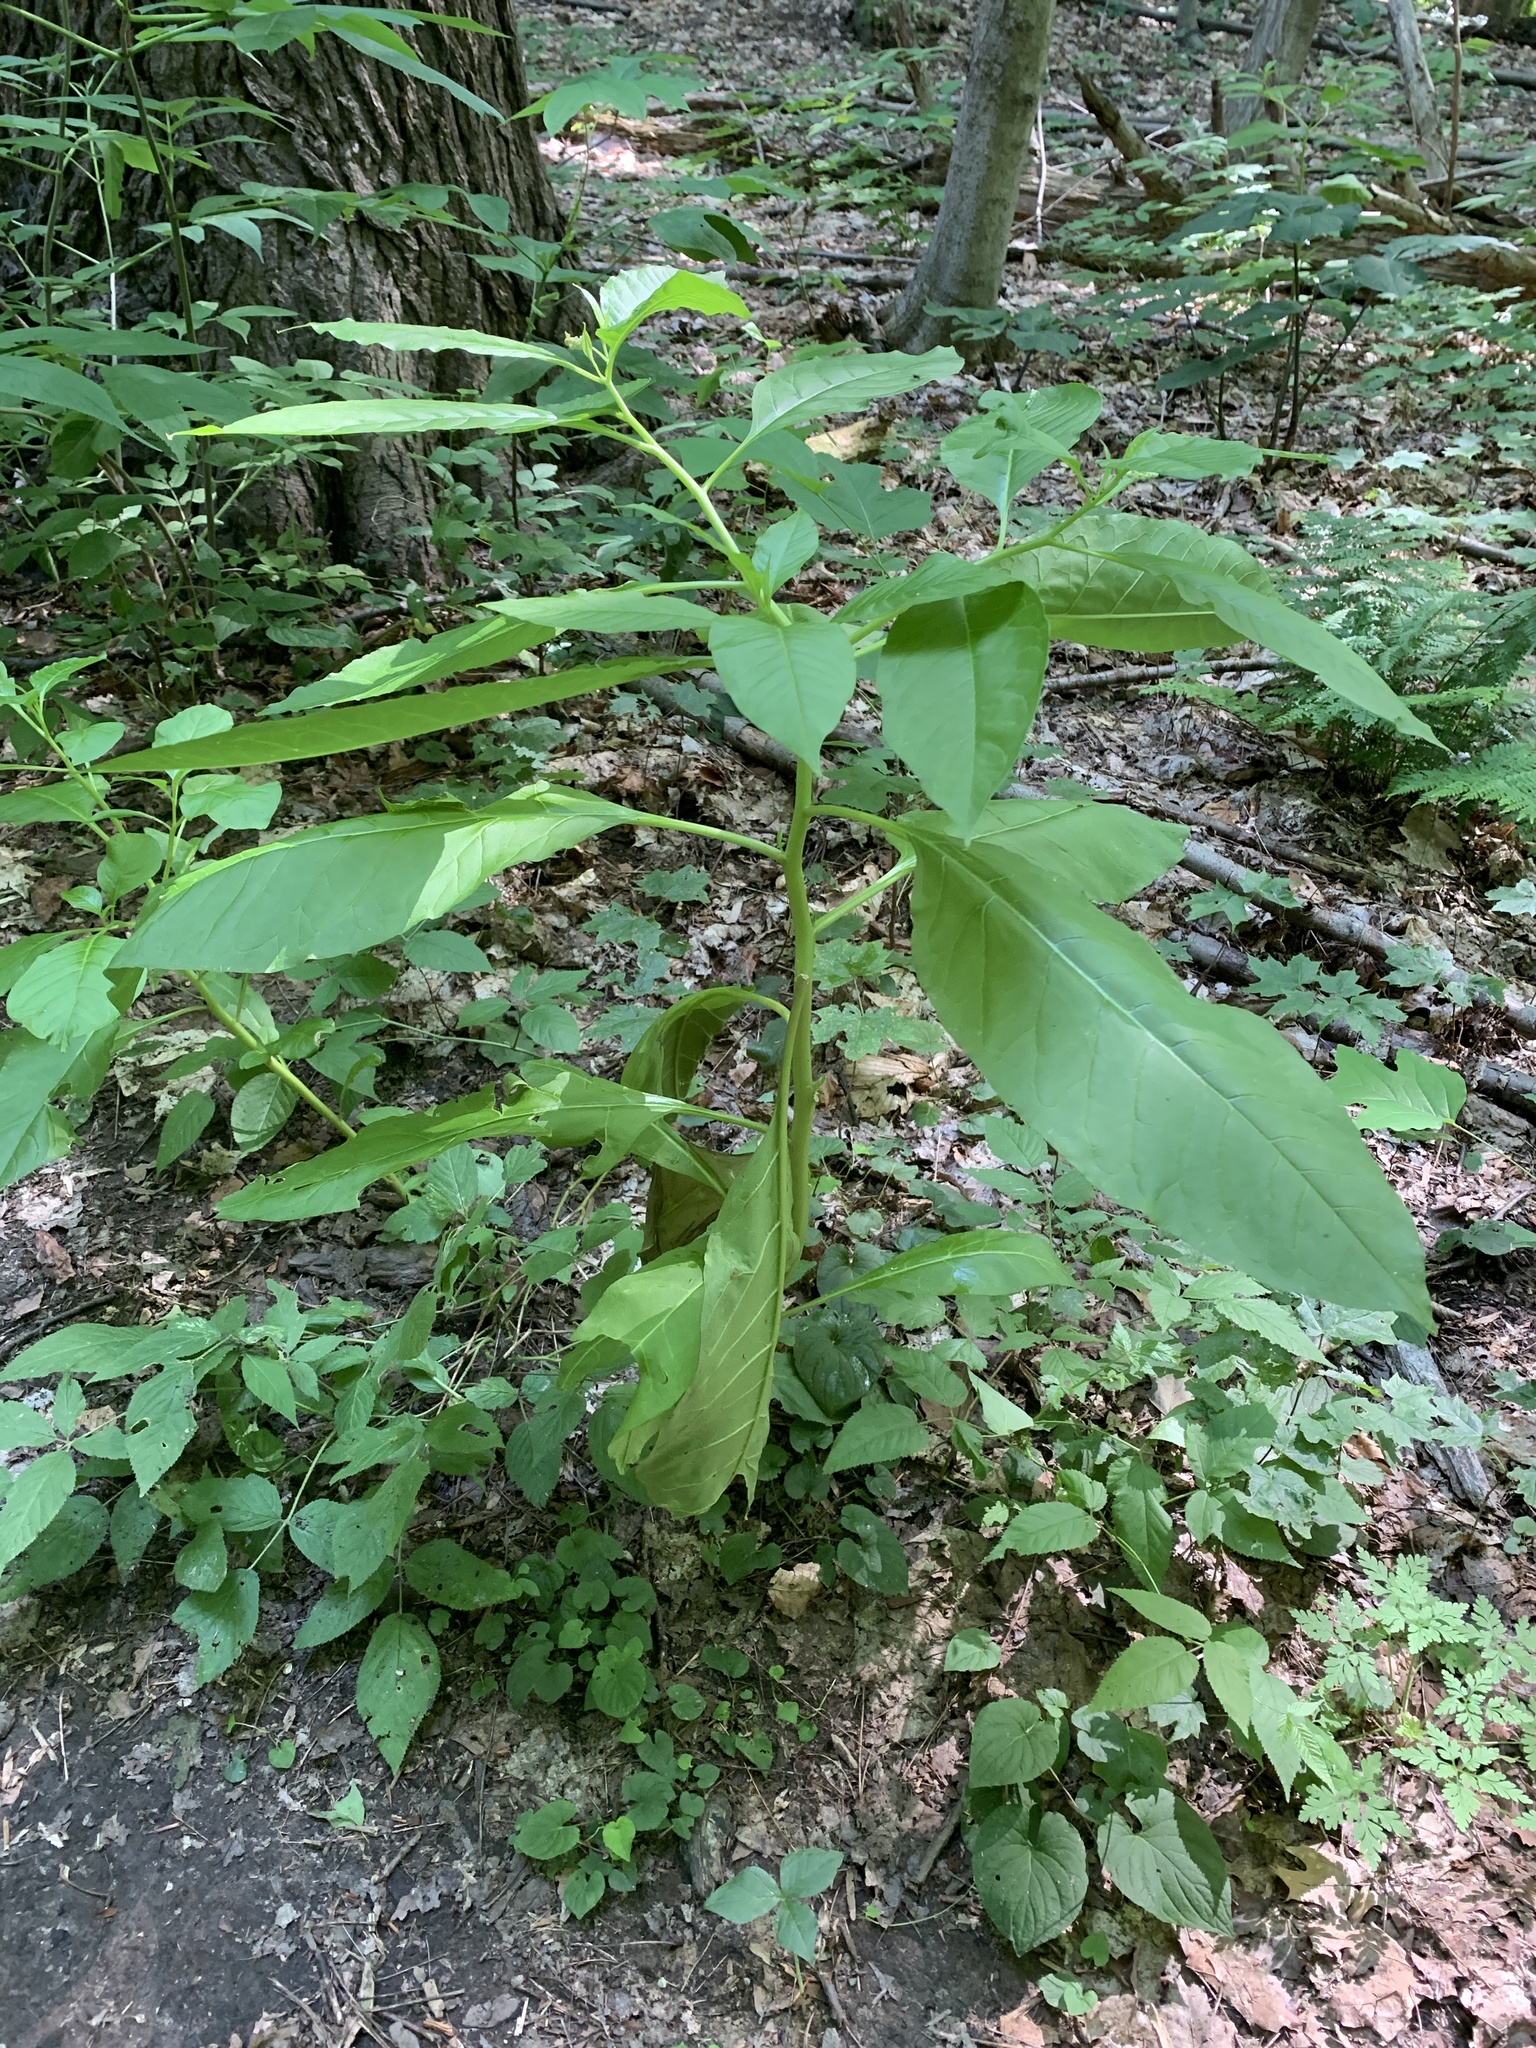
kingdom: Plantae
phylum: Tracheophyta
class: Magnoliopsida
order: Caryophyllales
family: Phytolaccaceae
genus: Phytolacca
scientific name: Phytolacca americana
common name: American pokeweed
